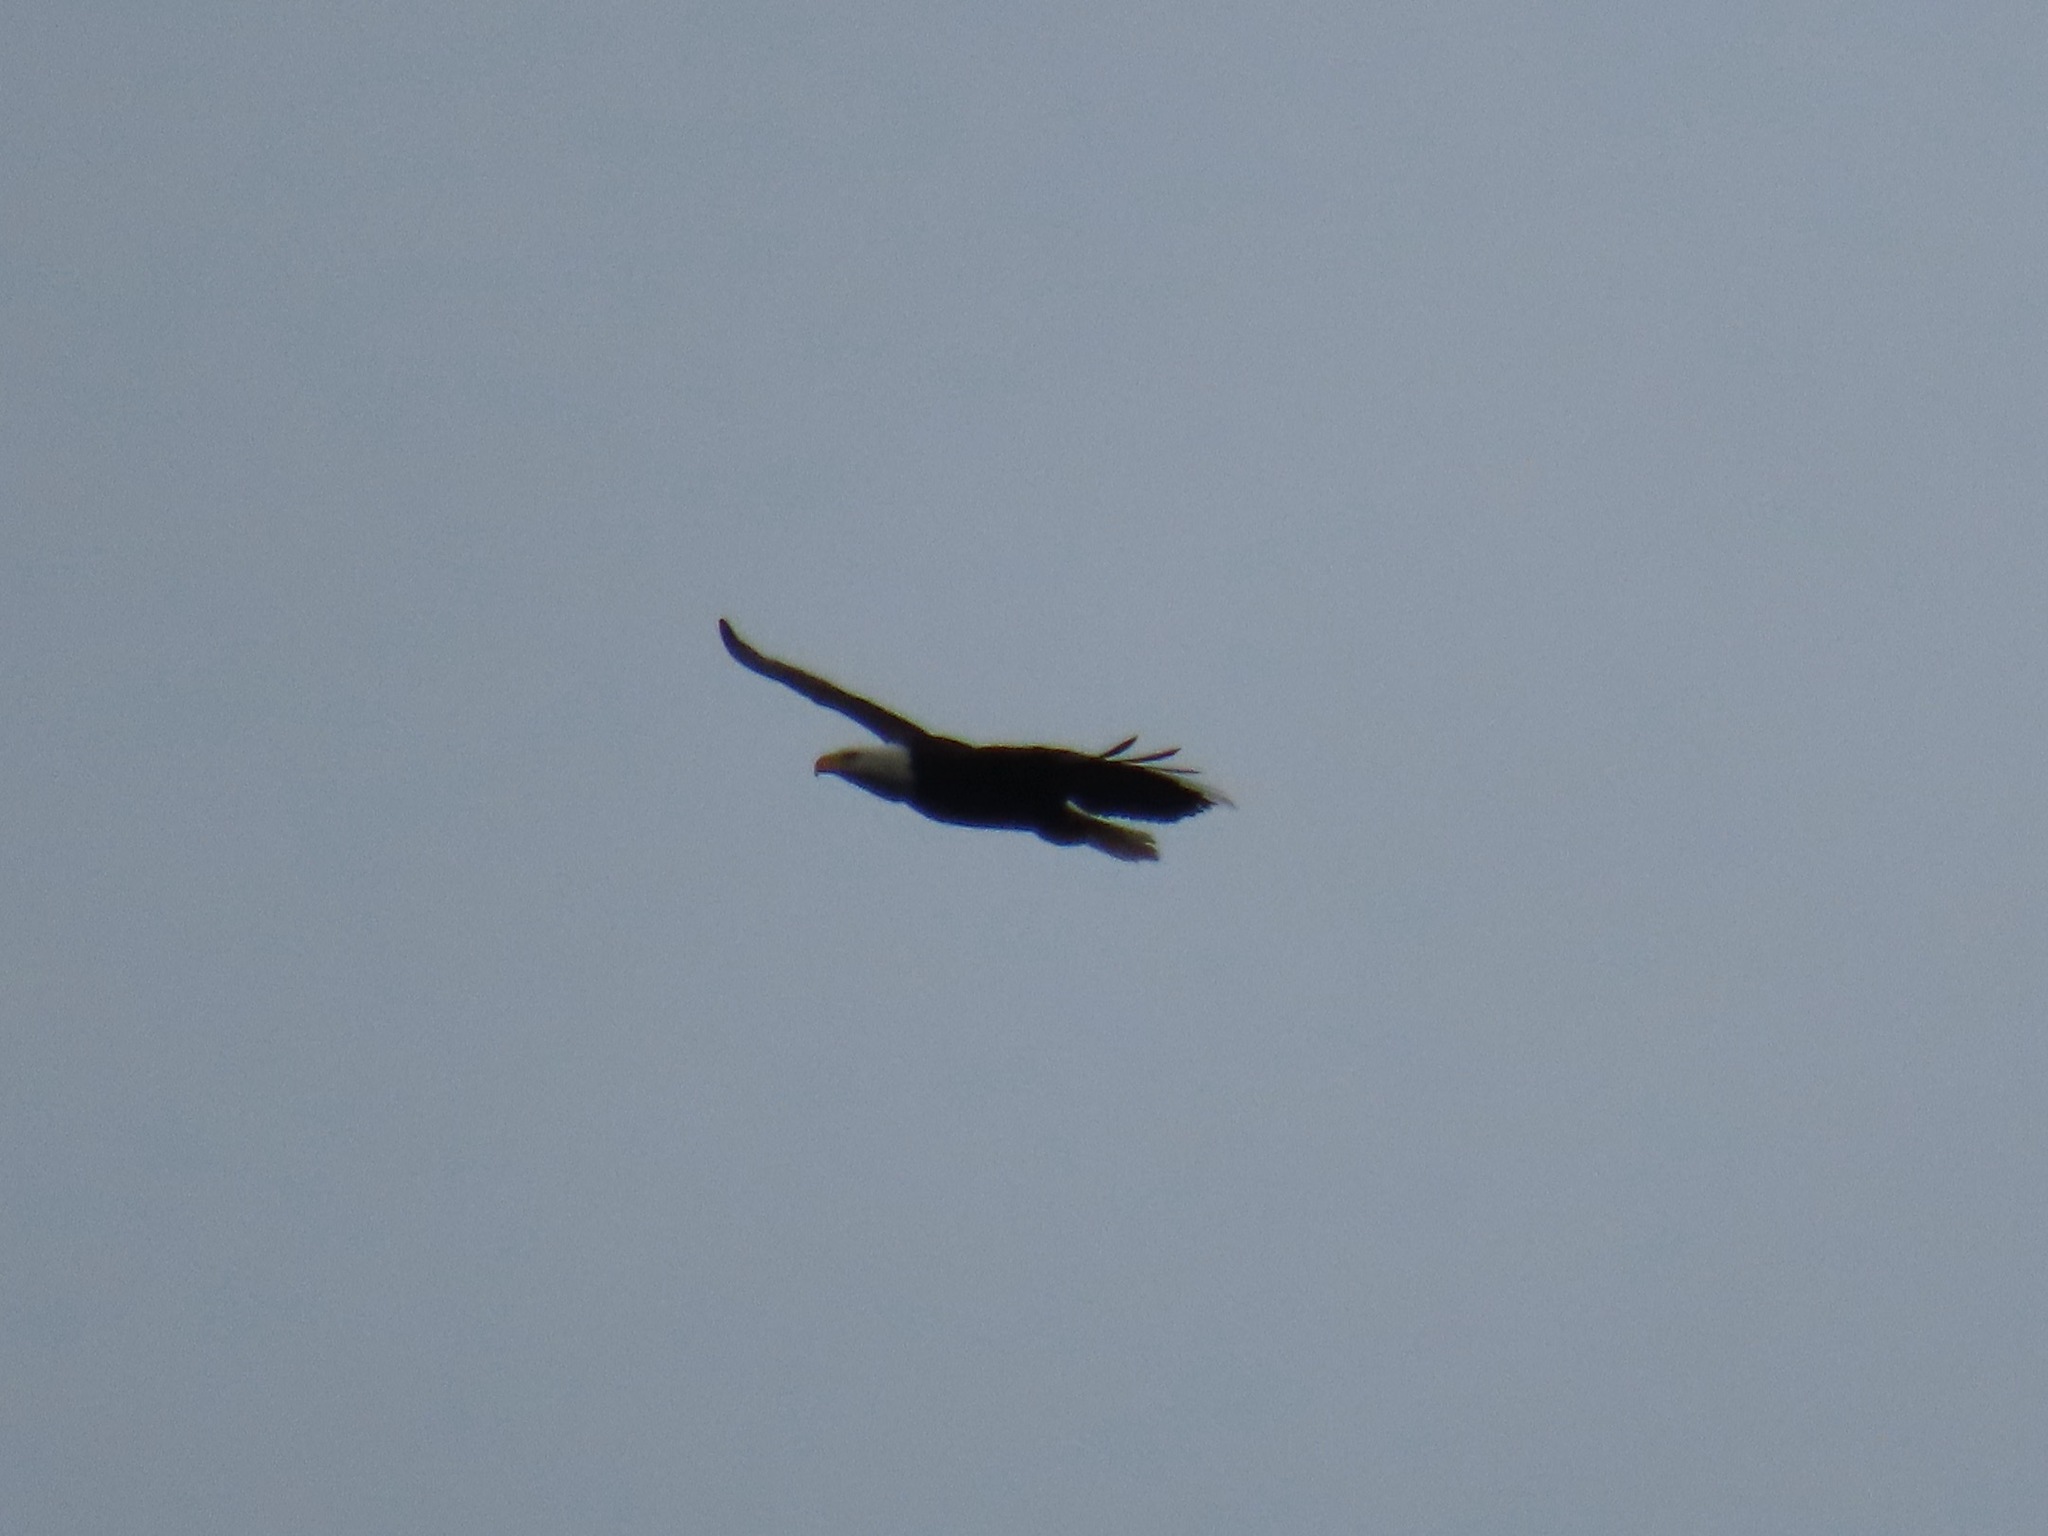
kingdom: Animalia
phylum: Chordata
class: Aves
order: Accipitriformes
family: Accipitridae
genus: Haliaeetus
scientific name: Haliaeetus leucocephalus
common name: Bald eagle
